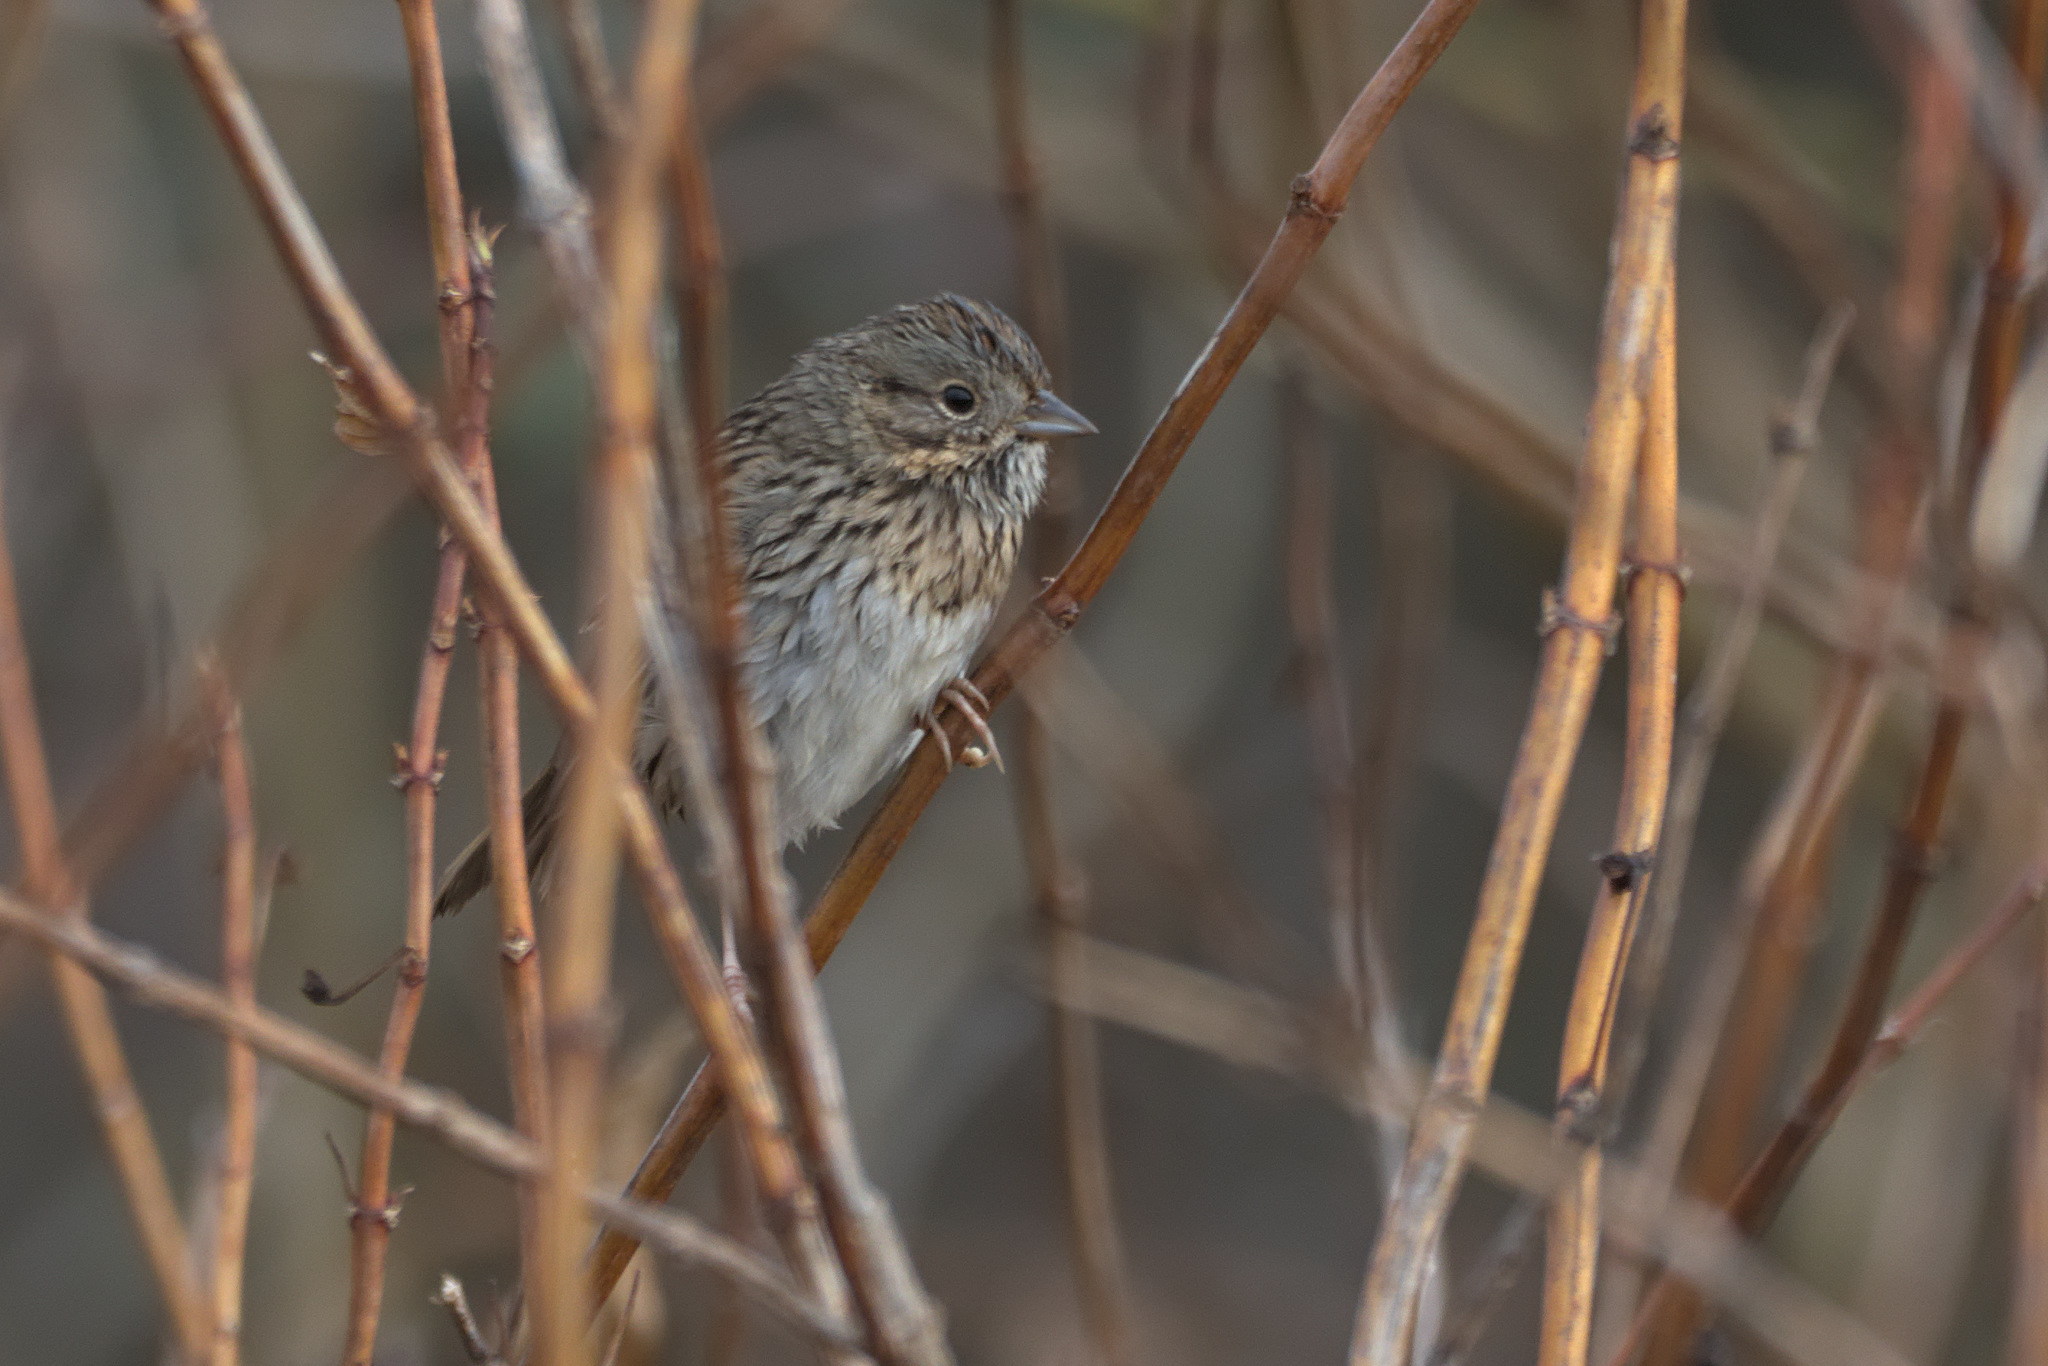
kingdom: Animalia
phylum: Chordata
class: Aves
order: Passeriformes
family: Passerellidae
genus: Melospiza
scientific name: Melospiza lincolnii
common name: Lincoln's sparrow
